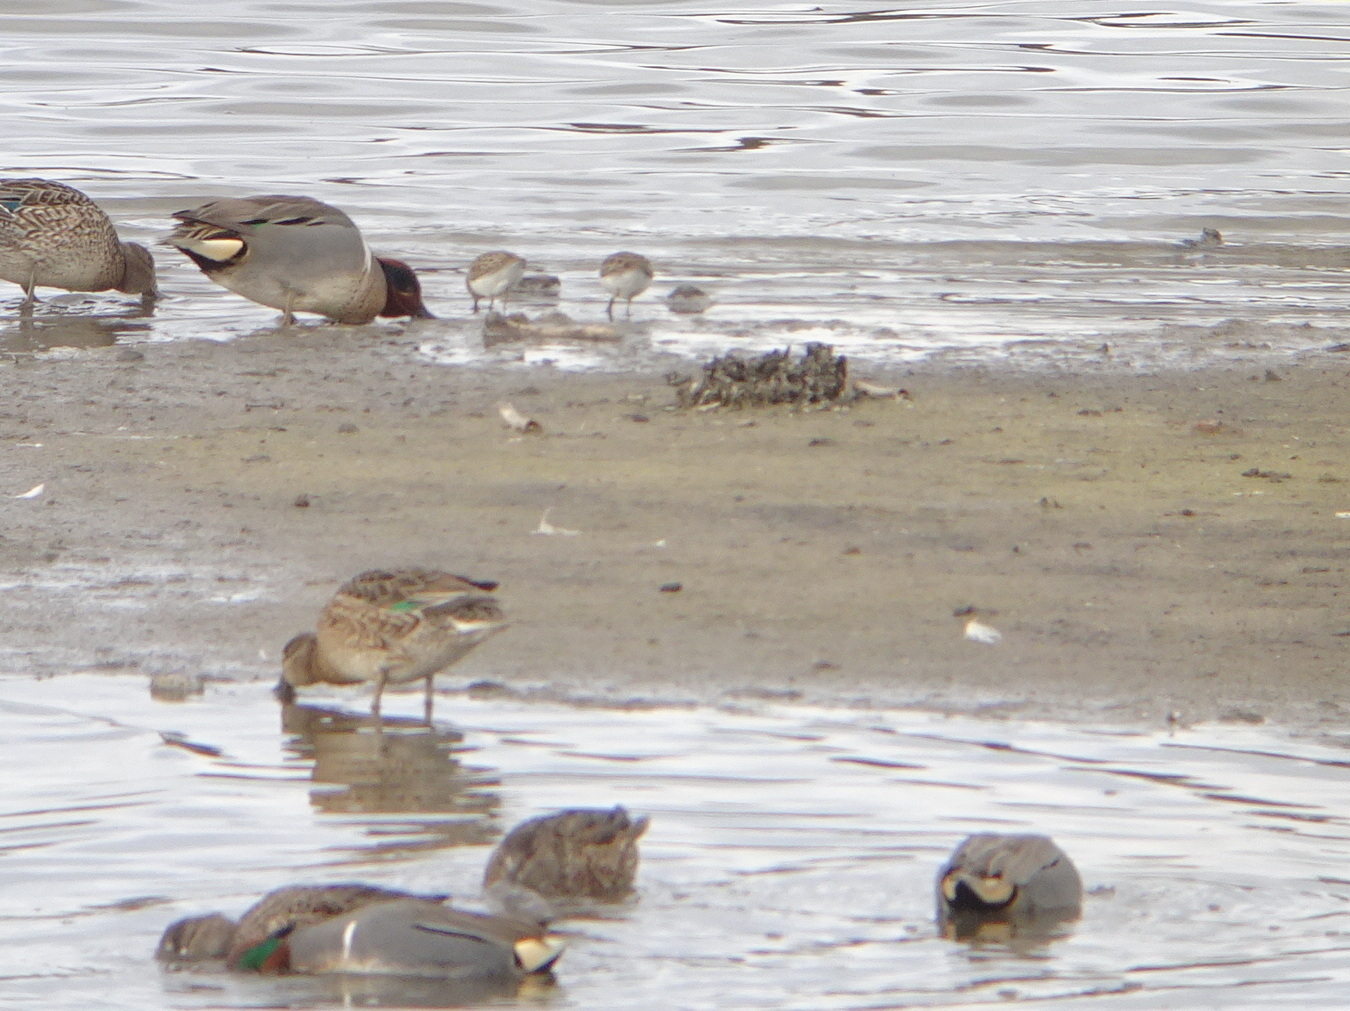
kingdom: Animalia
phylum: Chordata
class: Aves
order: Anseriformes
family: Anatidae
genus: Anas
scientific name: Anas crecca
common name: Eurasian teal
